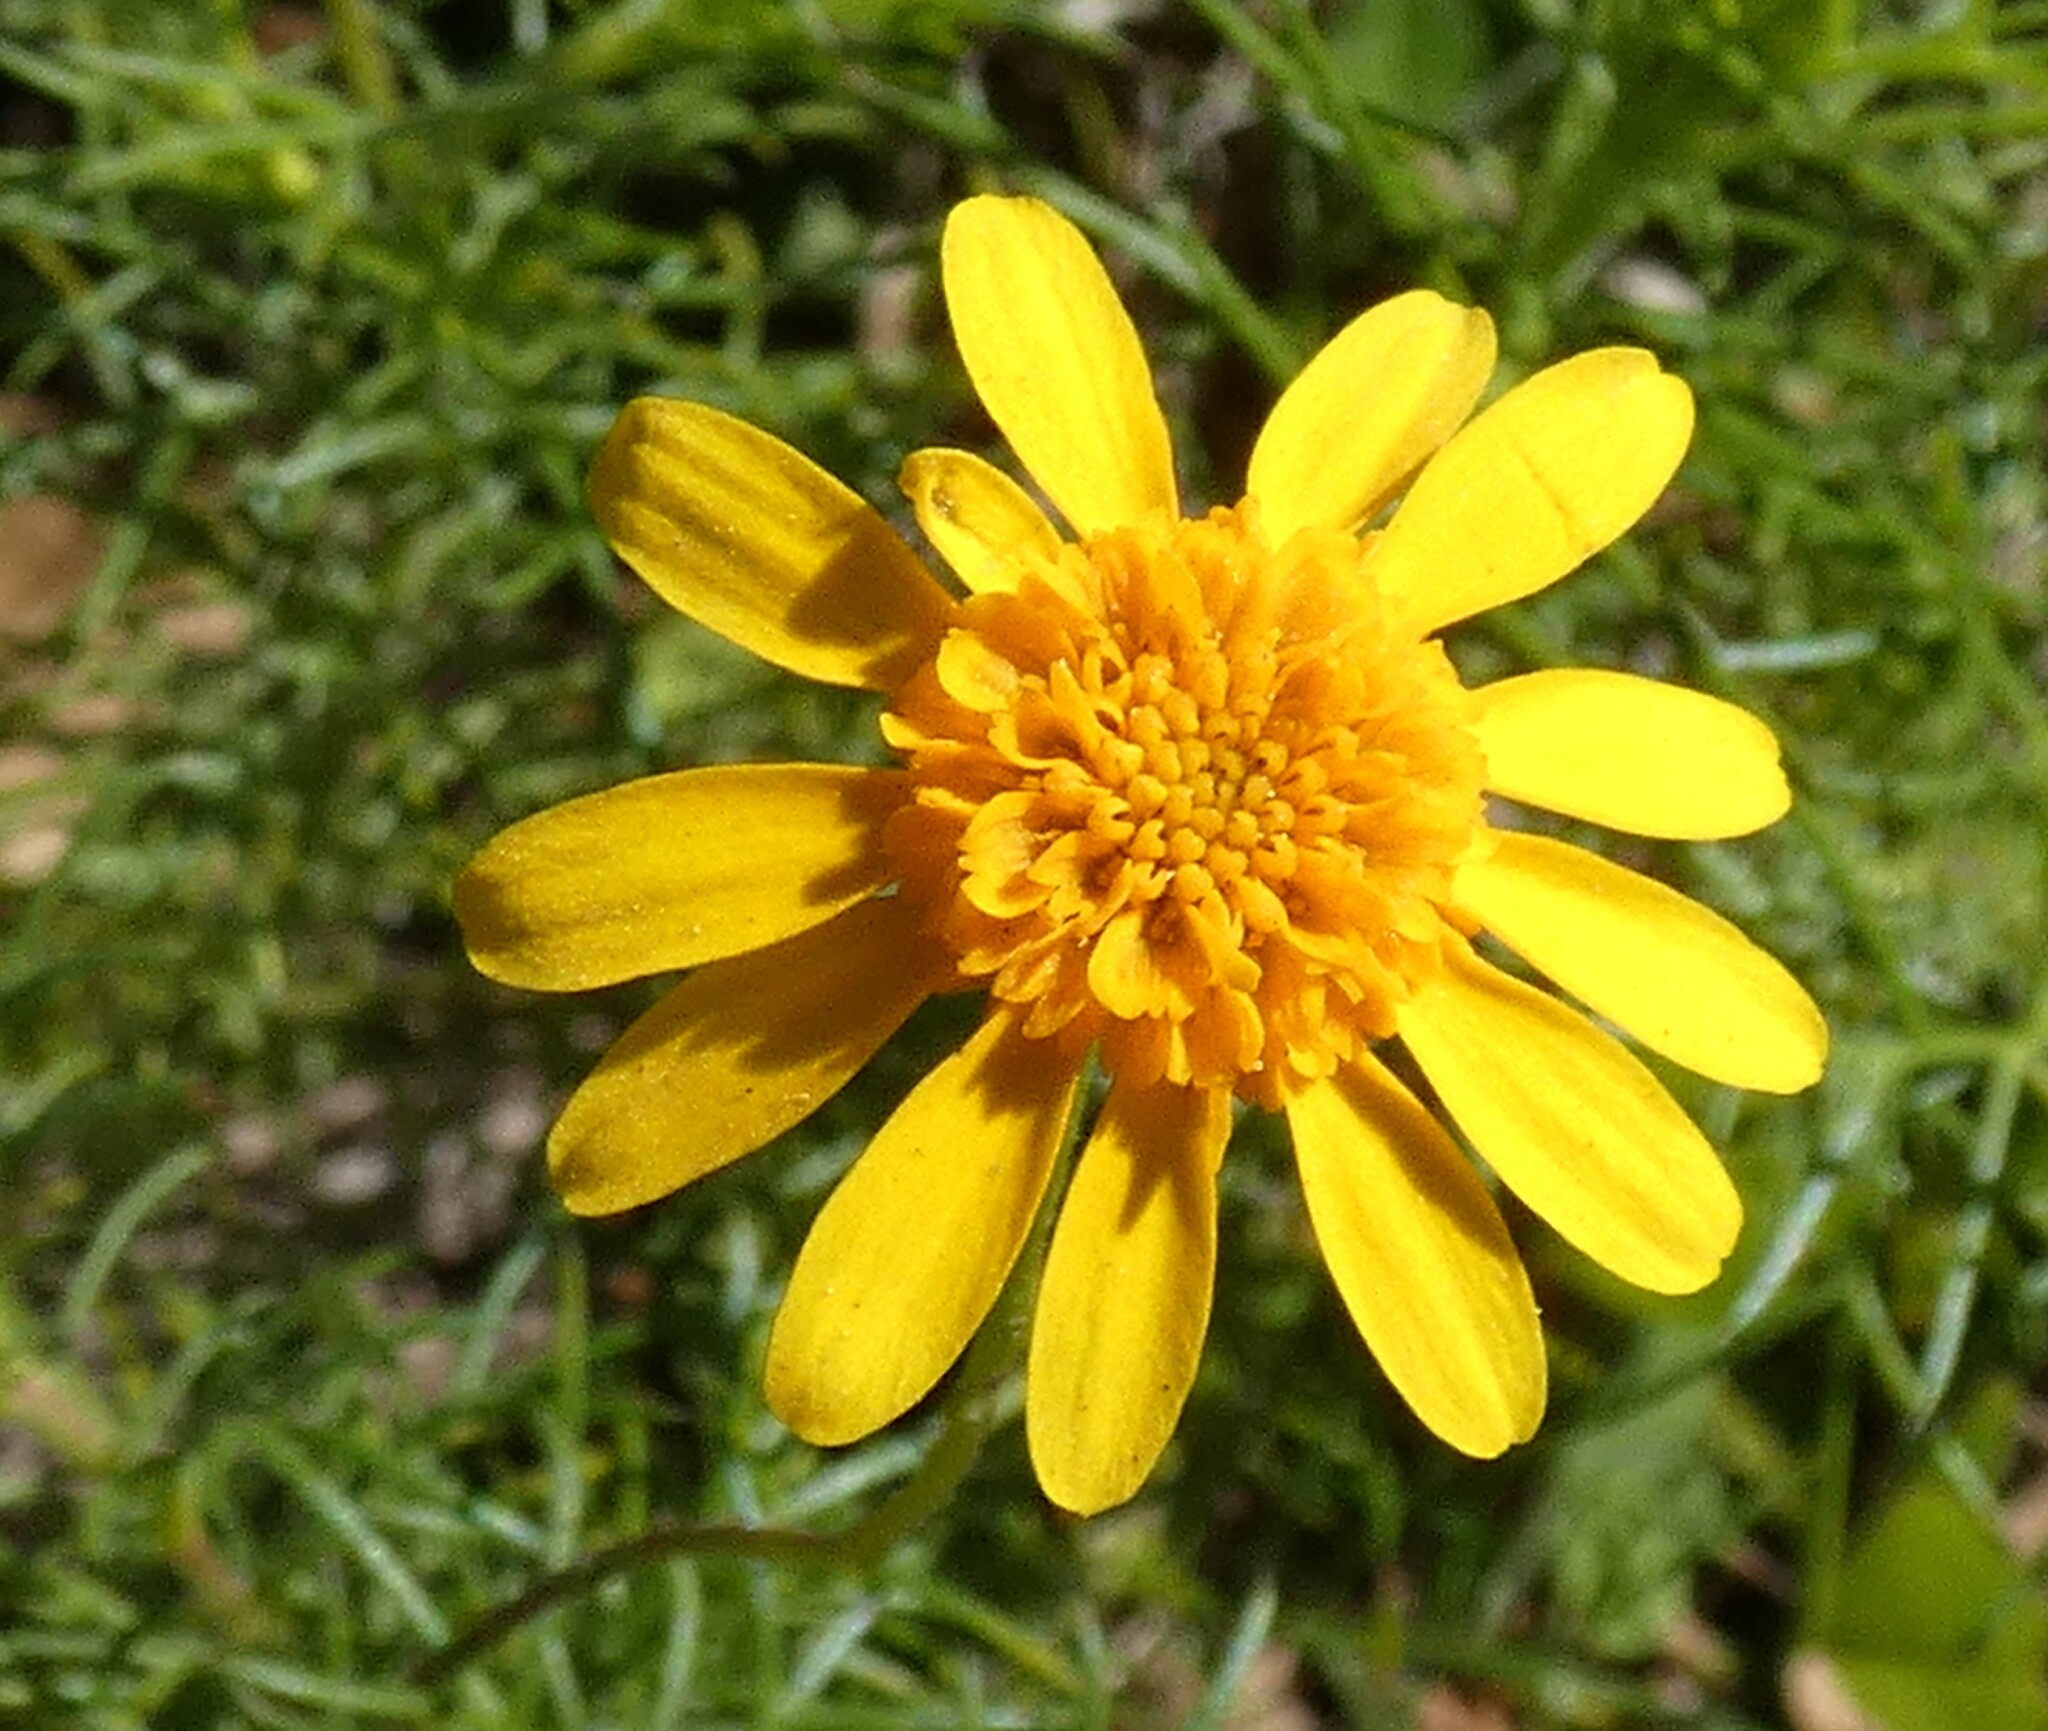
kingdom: Plantae
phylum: Tracheophyta
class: Magnoliopsida
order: Asterales
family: Asteraceae
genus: Thymophylla
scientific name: Thymophylla tenuiloba
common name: Dahlberg's daisy
